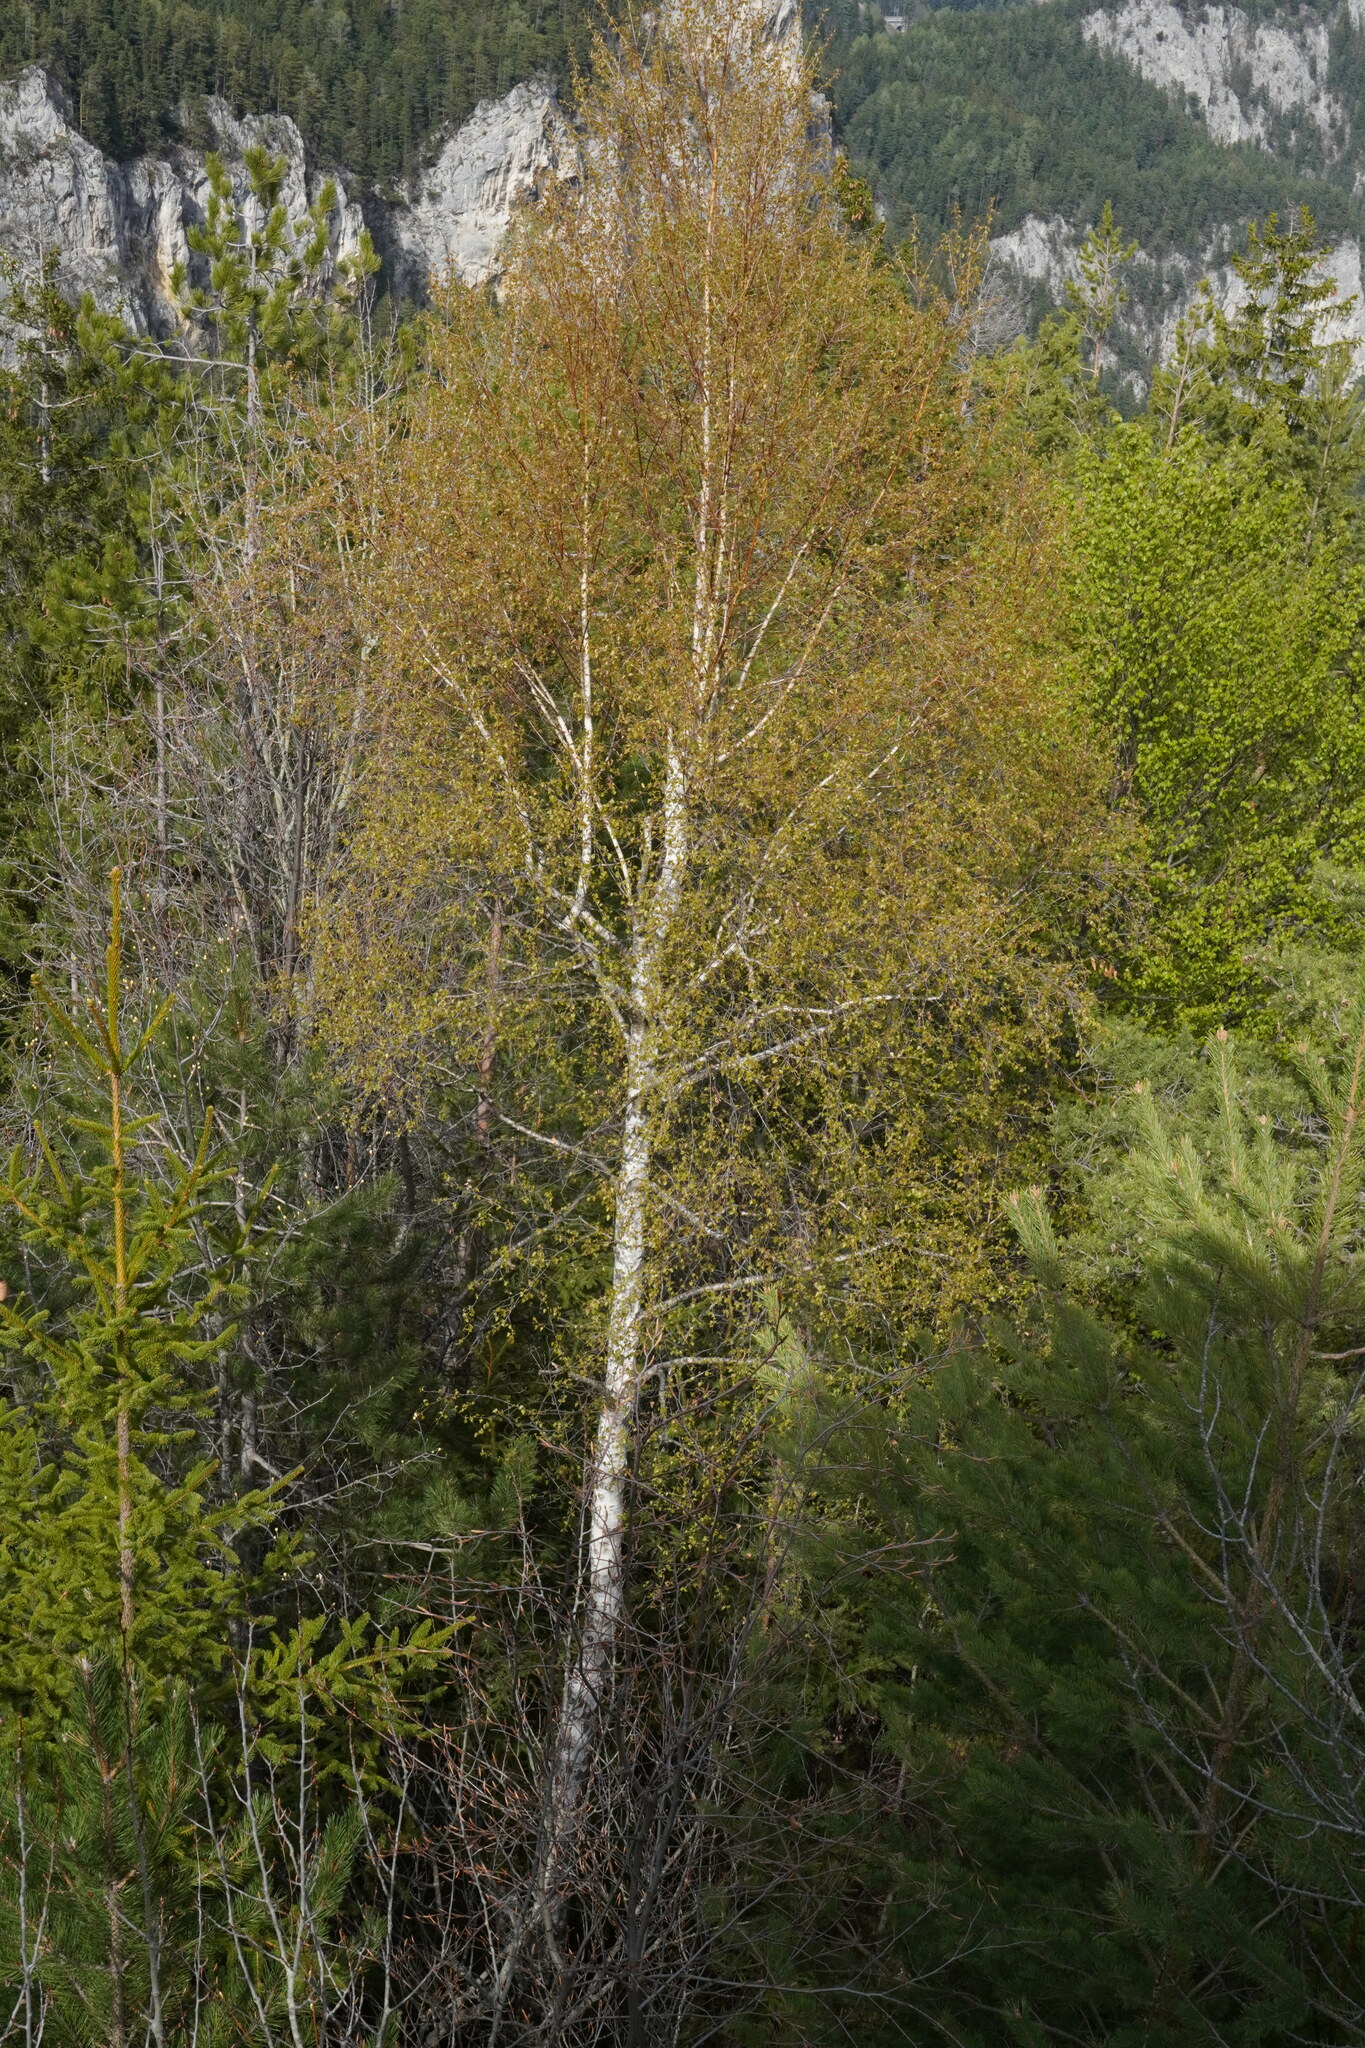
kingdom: Plantae
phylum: Tracheophyta
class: Magnoliopsida
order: Fagales
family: Betulaceae
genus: Betula
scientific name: Betula pendula
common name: Silver birch
